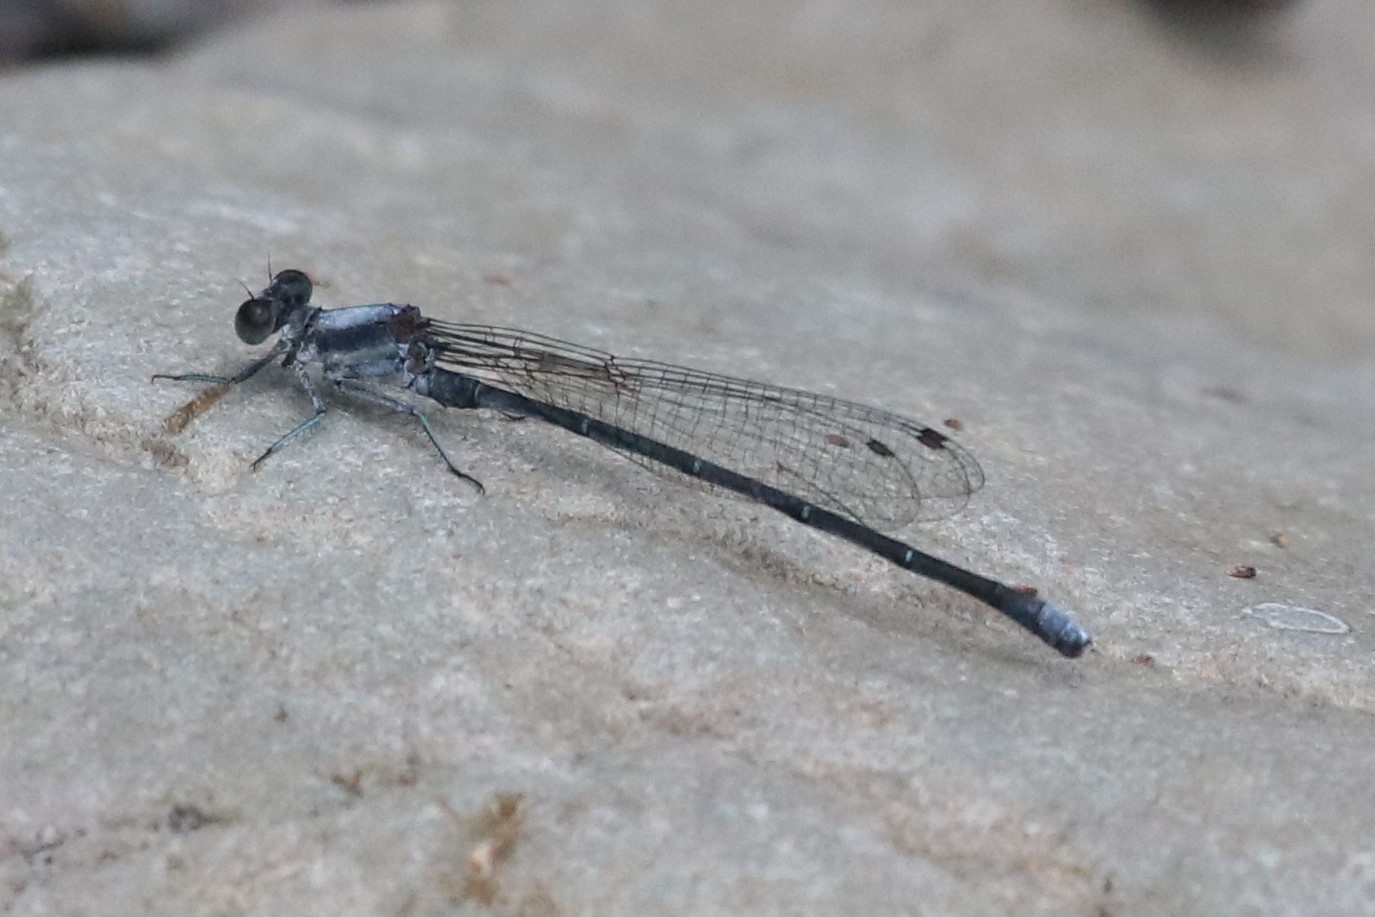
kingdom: Animalia
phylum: Arthropoda
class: Insecta
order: Odonata
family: Coenagrionidae
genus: Argia
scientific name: Argia moesta
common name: Powdered dancer
